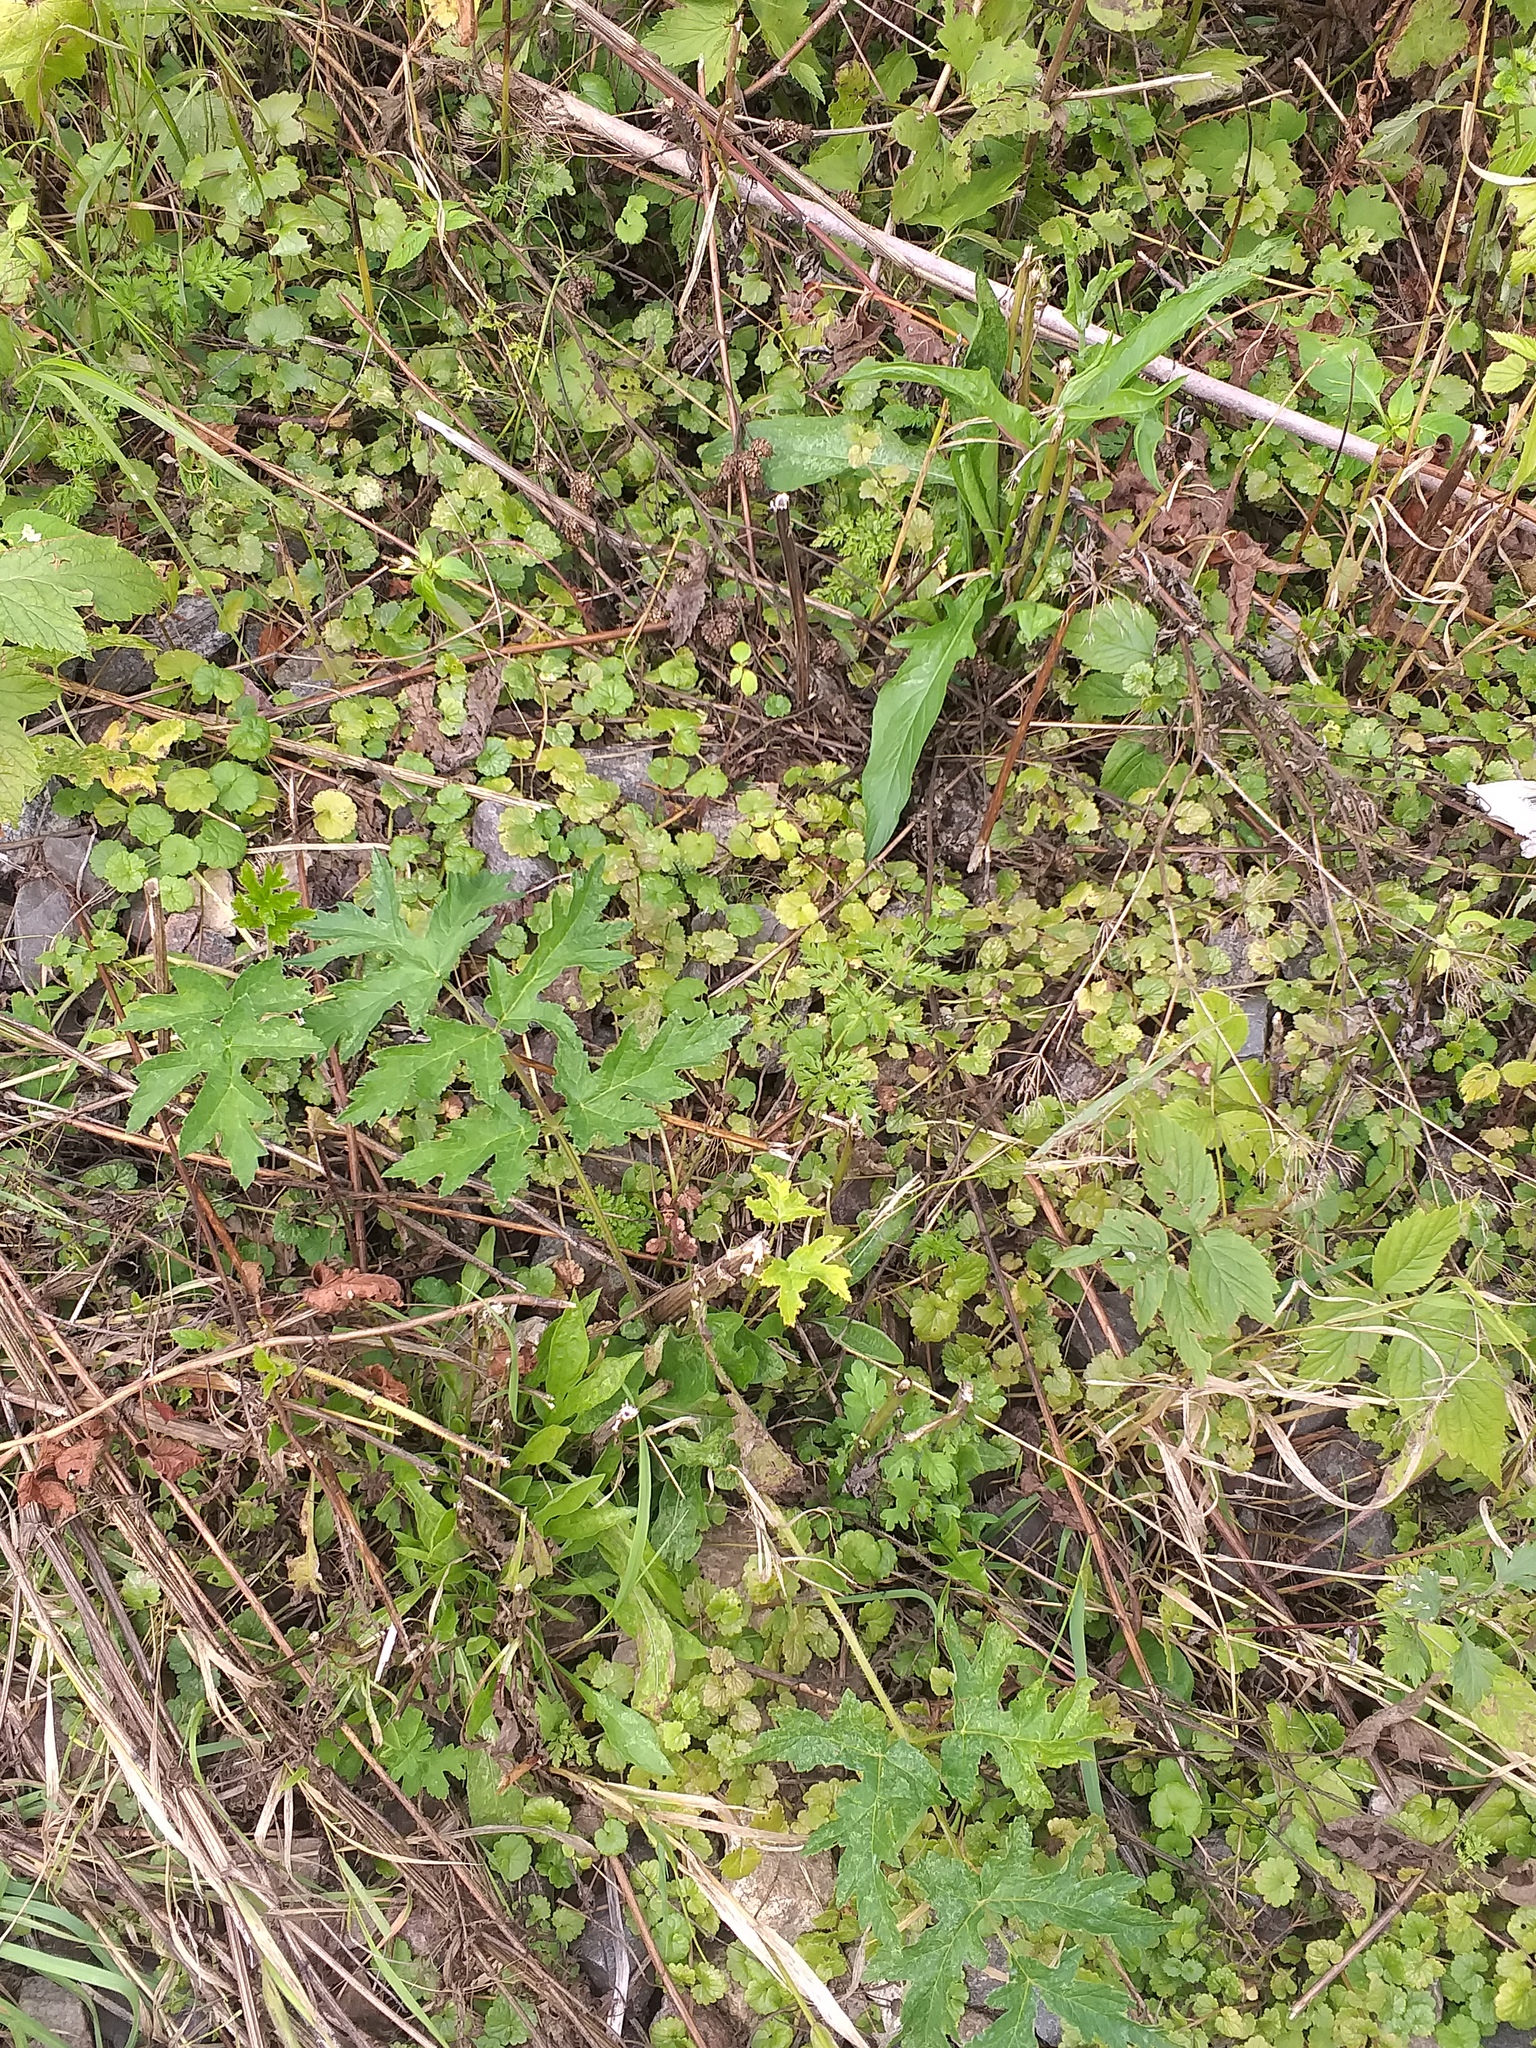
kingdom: Plantae
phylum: Tracheophyta
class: Magnoliopsida
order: Apiales
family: Apiaceae
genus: Heracleum
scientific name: Heracleum sphondylium
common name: Hogweed
